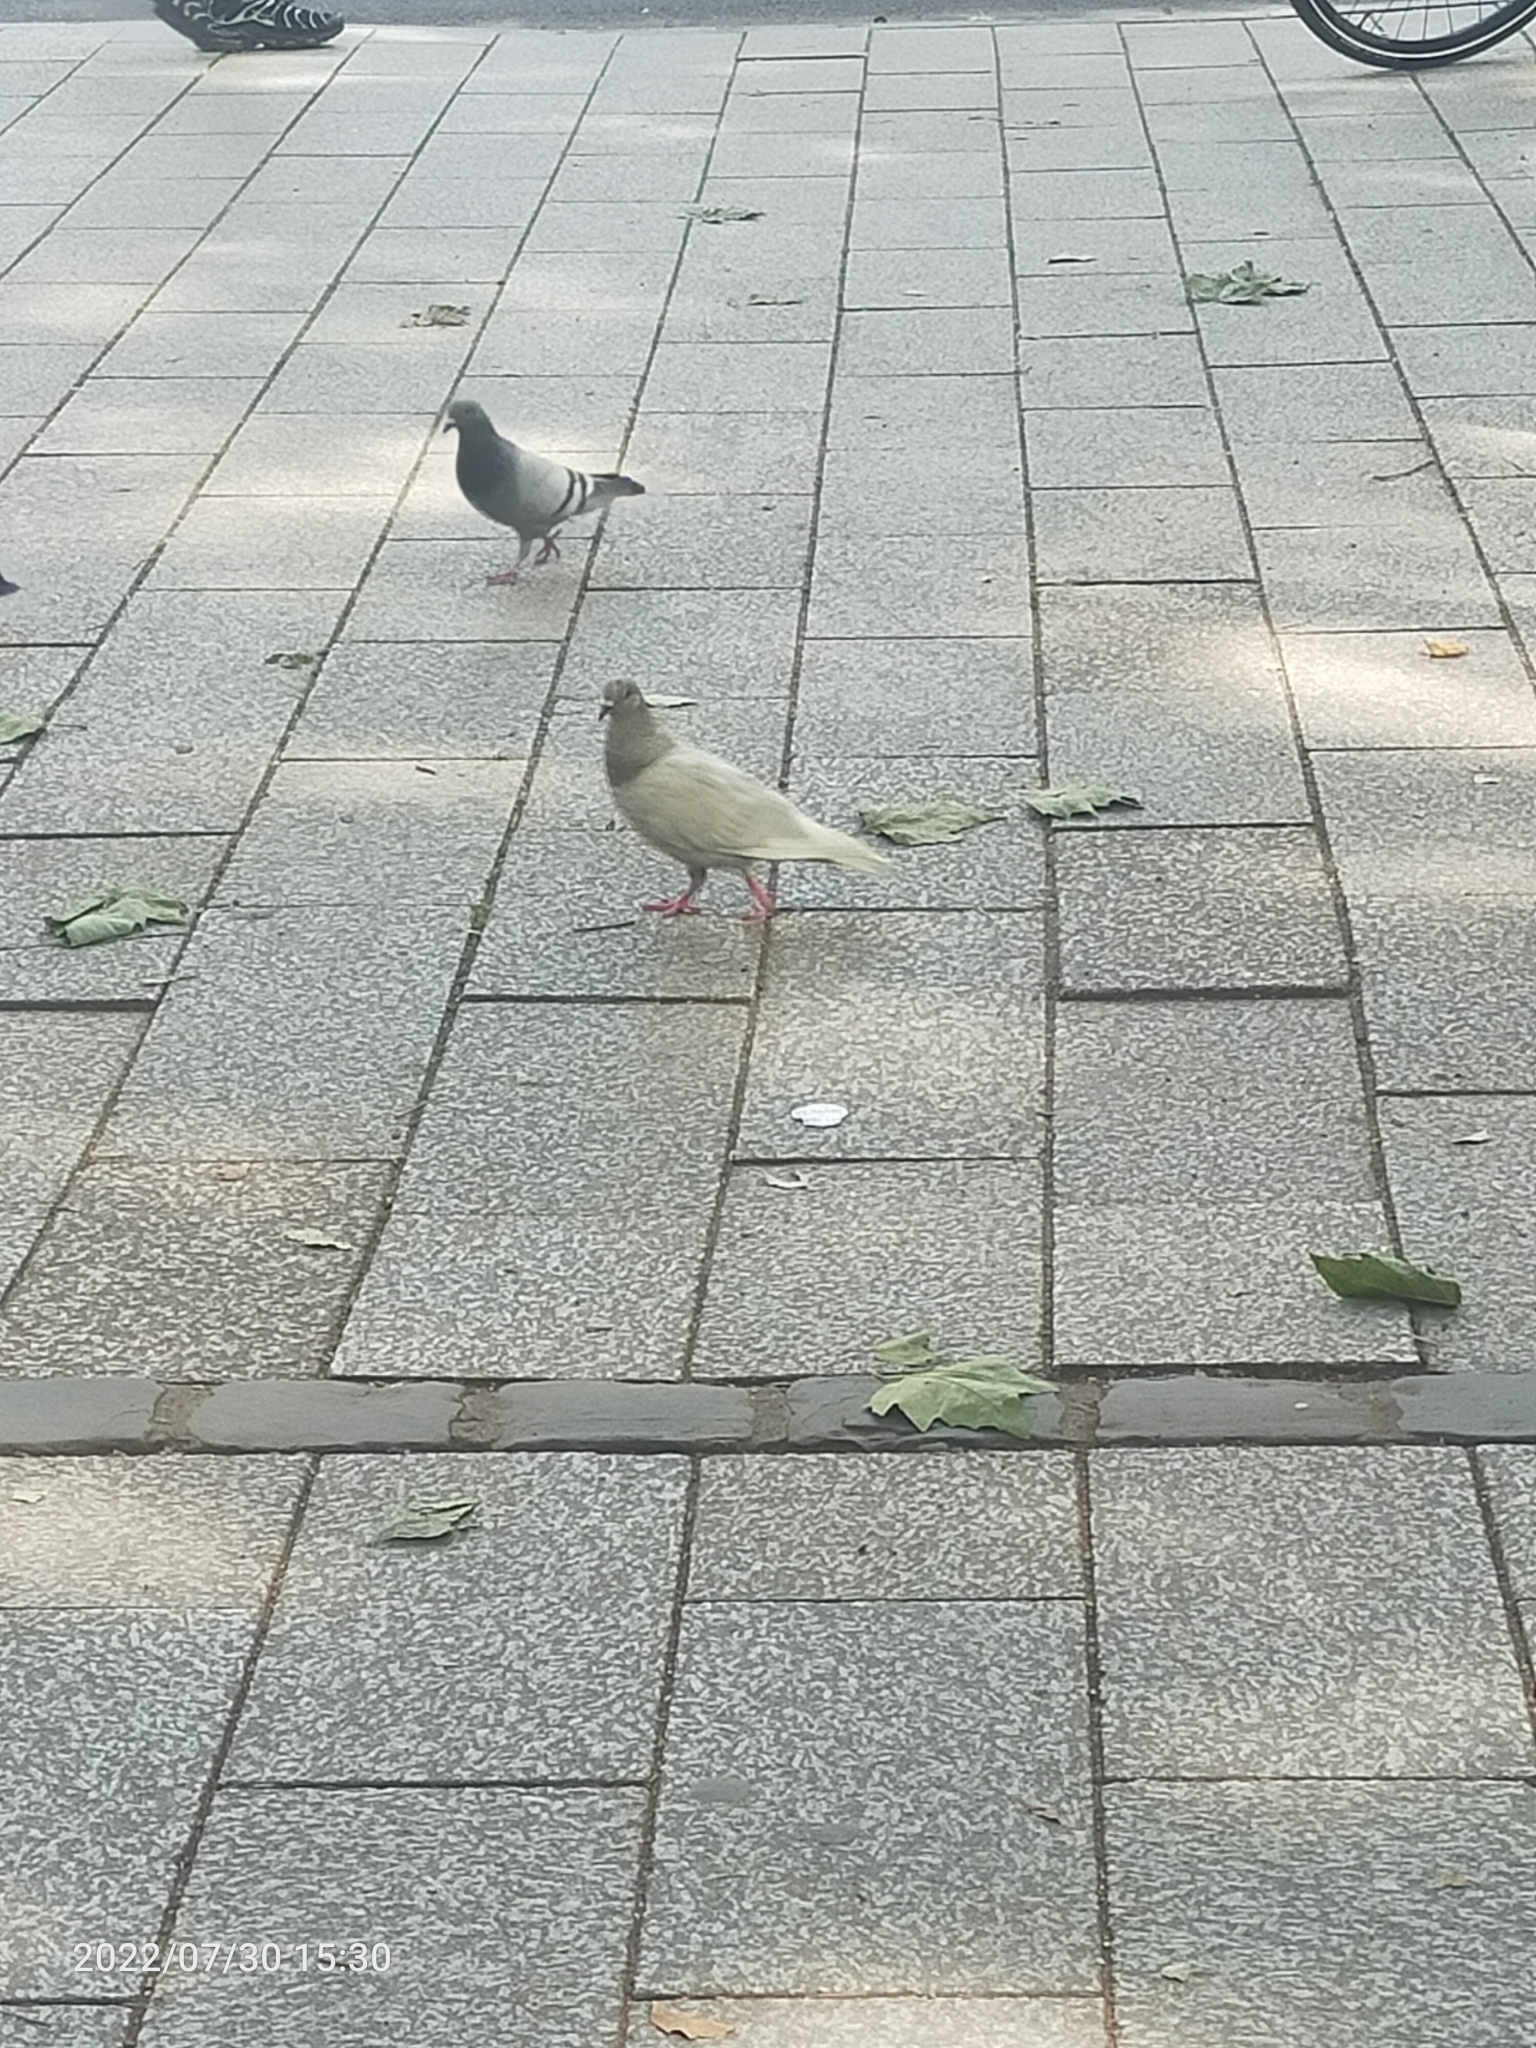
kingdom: Animalia
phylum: Chordata
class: Aves
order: Columbiformes
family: Columbidae
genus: Columba
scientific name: Columba livia
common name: Rock pigeon
